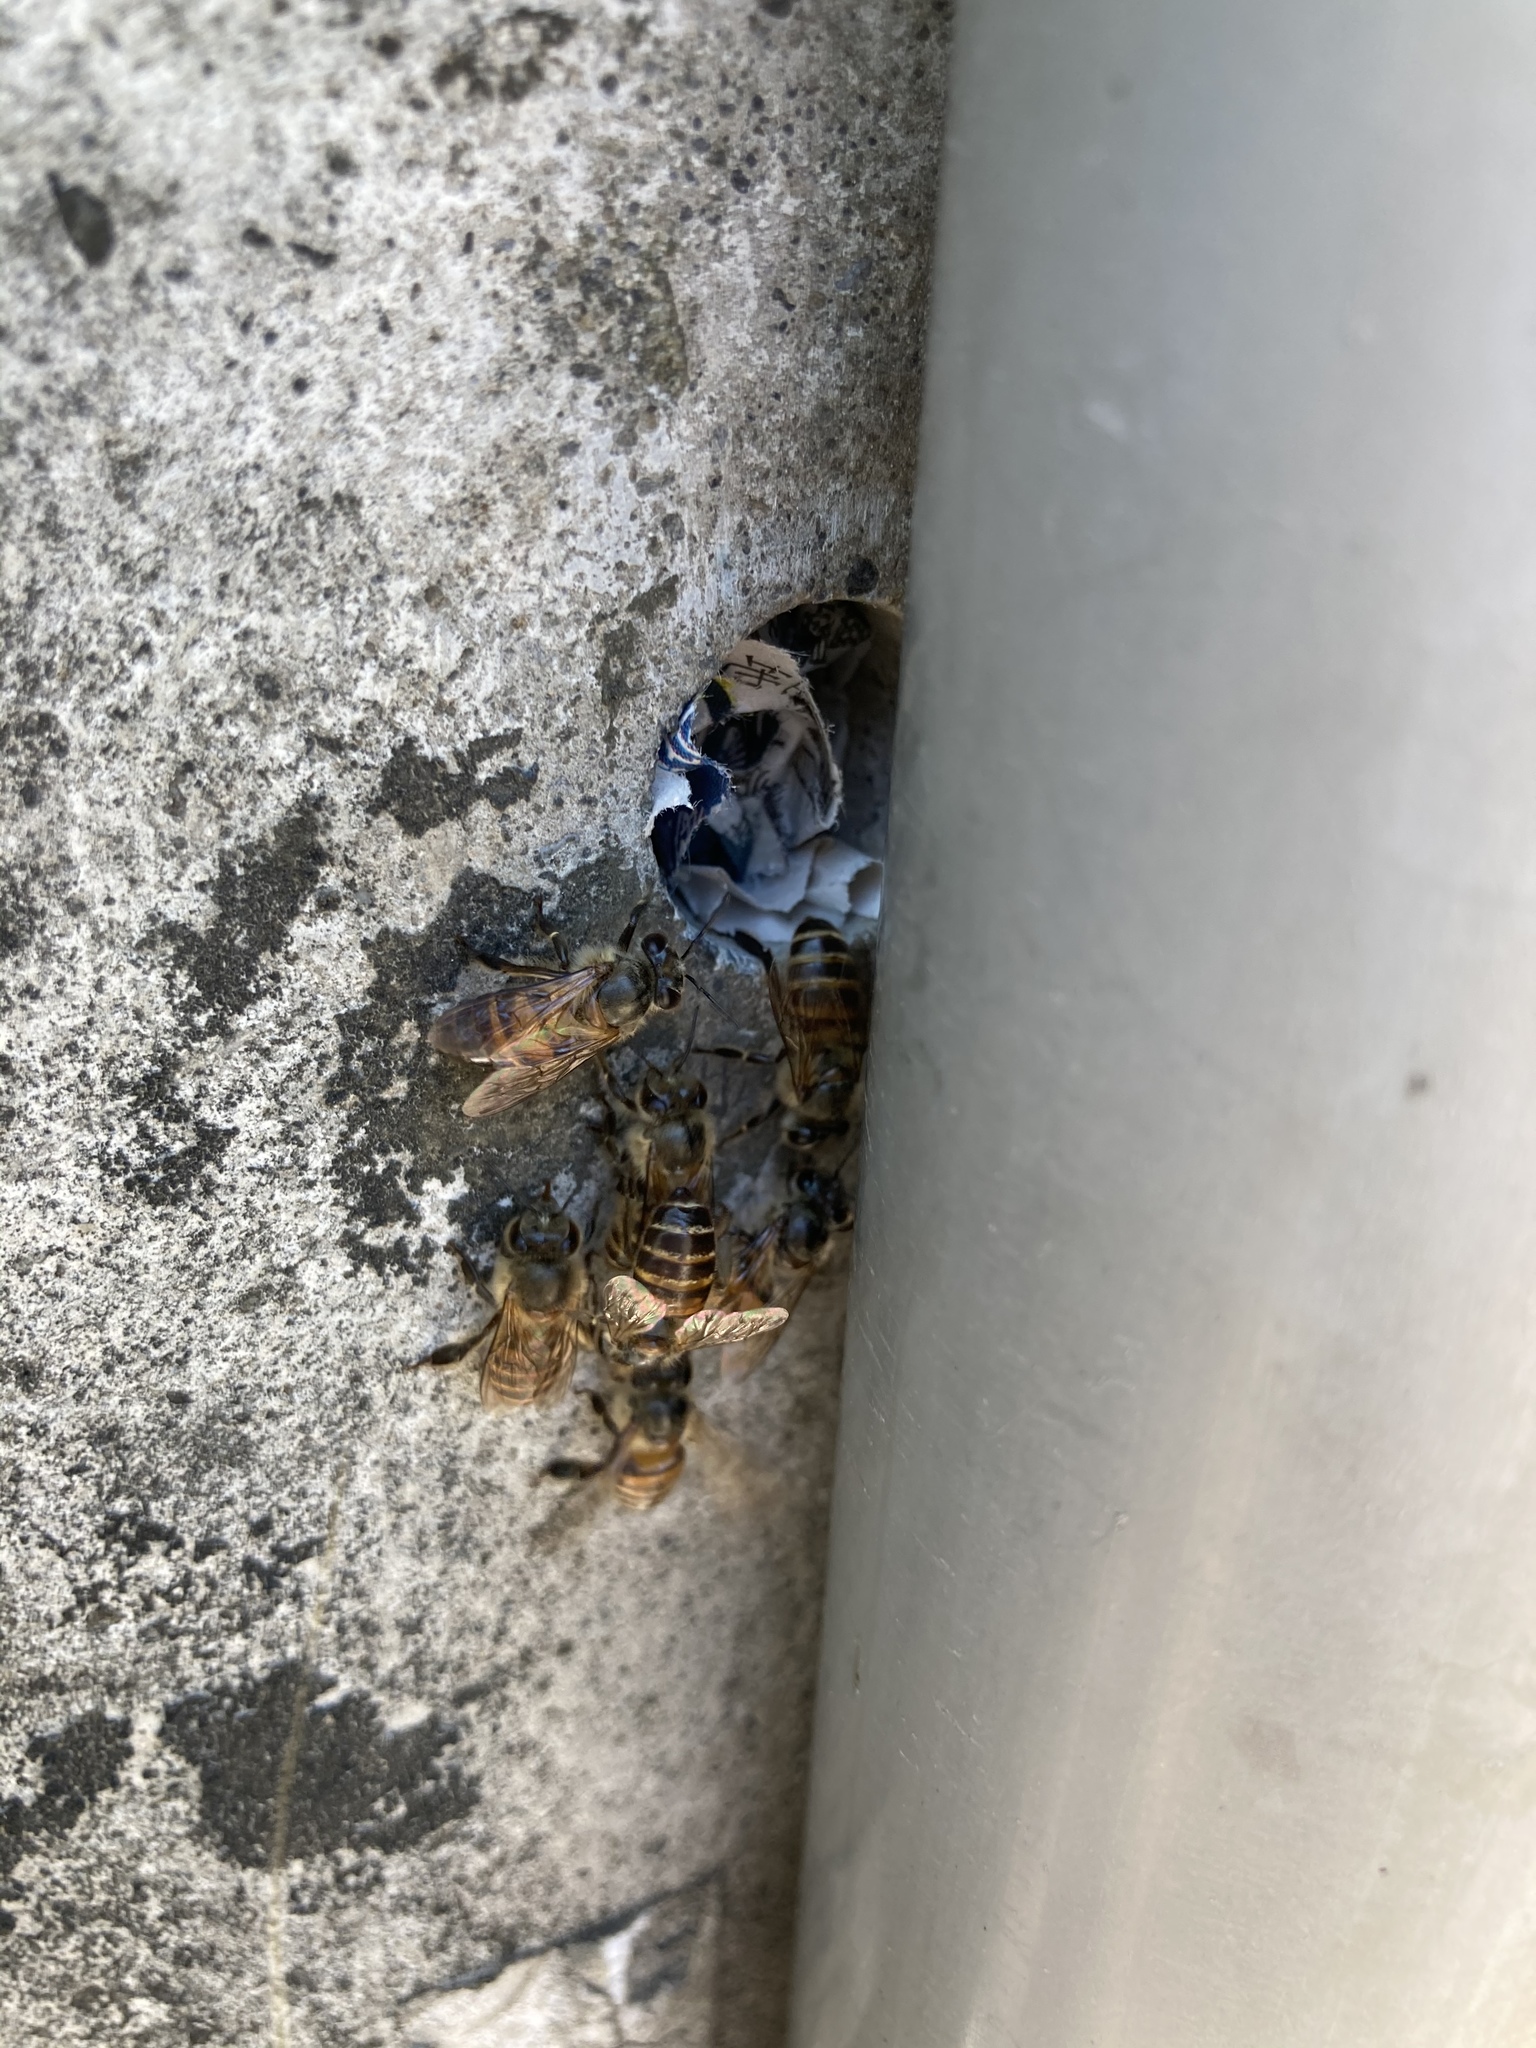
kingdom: Animalia
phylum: Arthropoda
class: Insecta
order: Hymenoptera
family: Apidae
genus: Apis
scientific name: Apis cerana
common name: Honey bee
